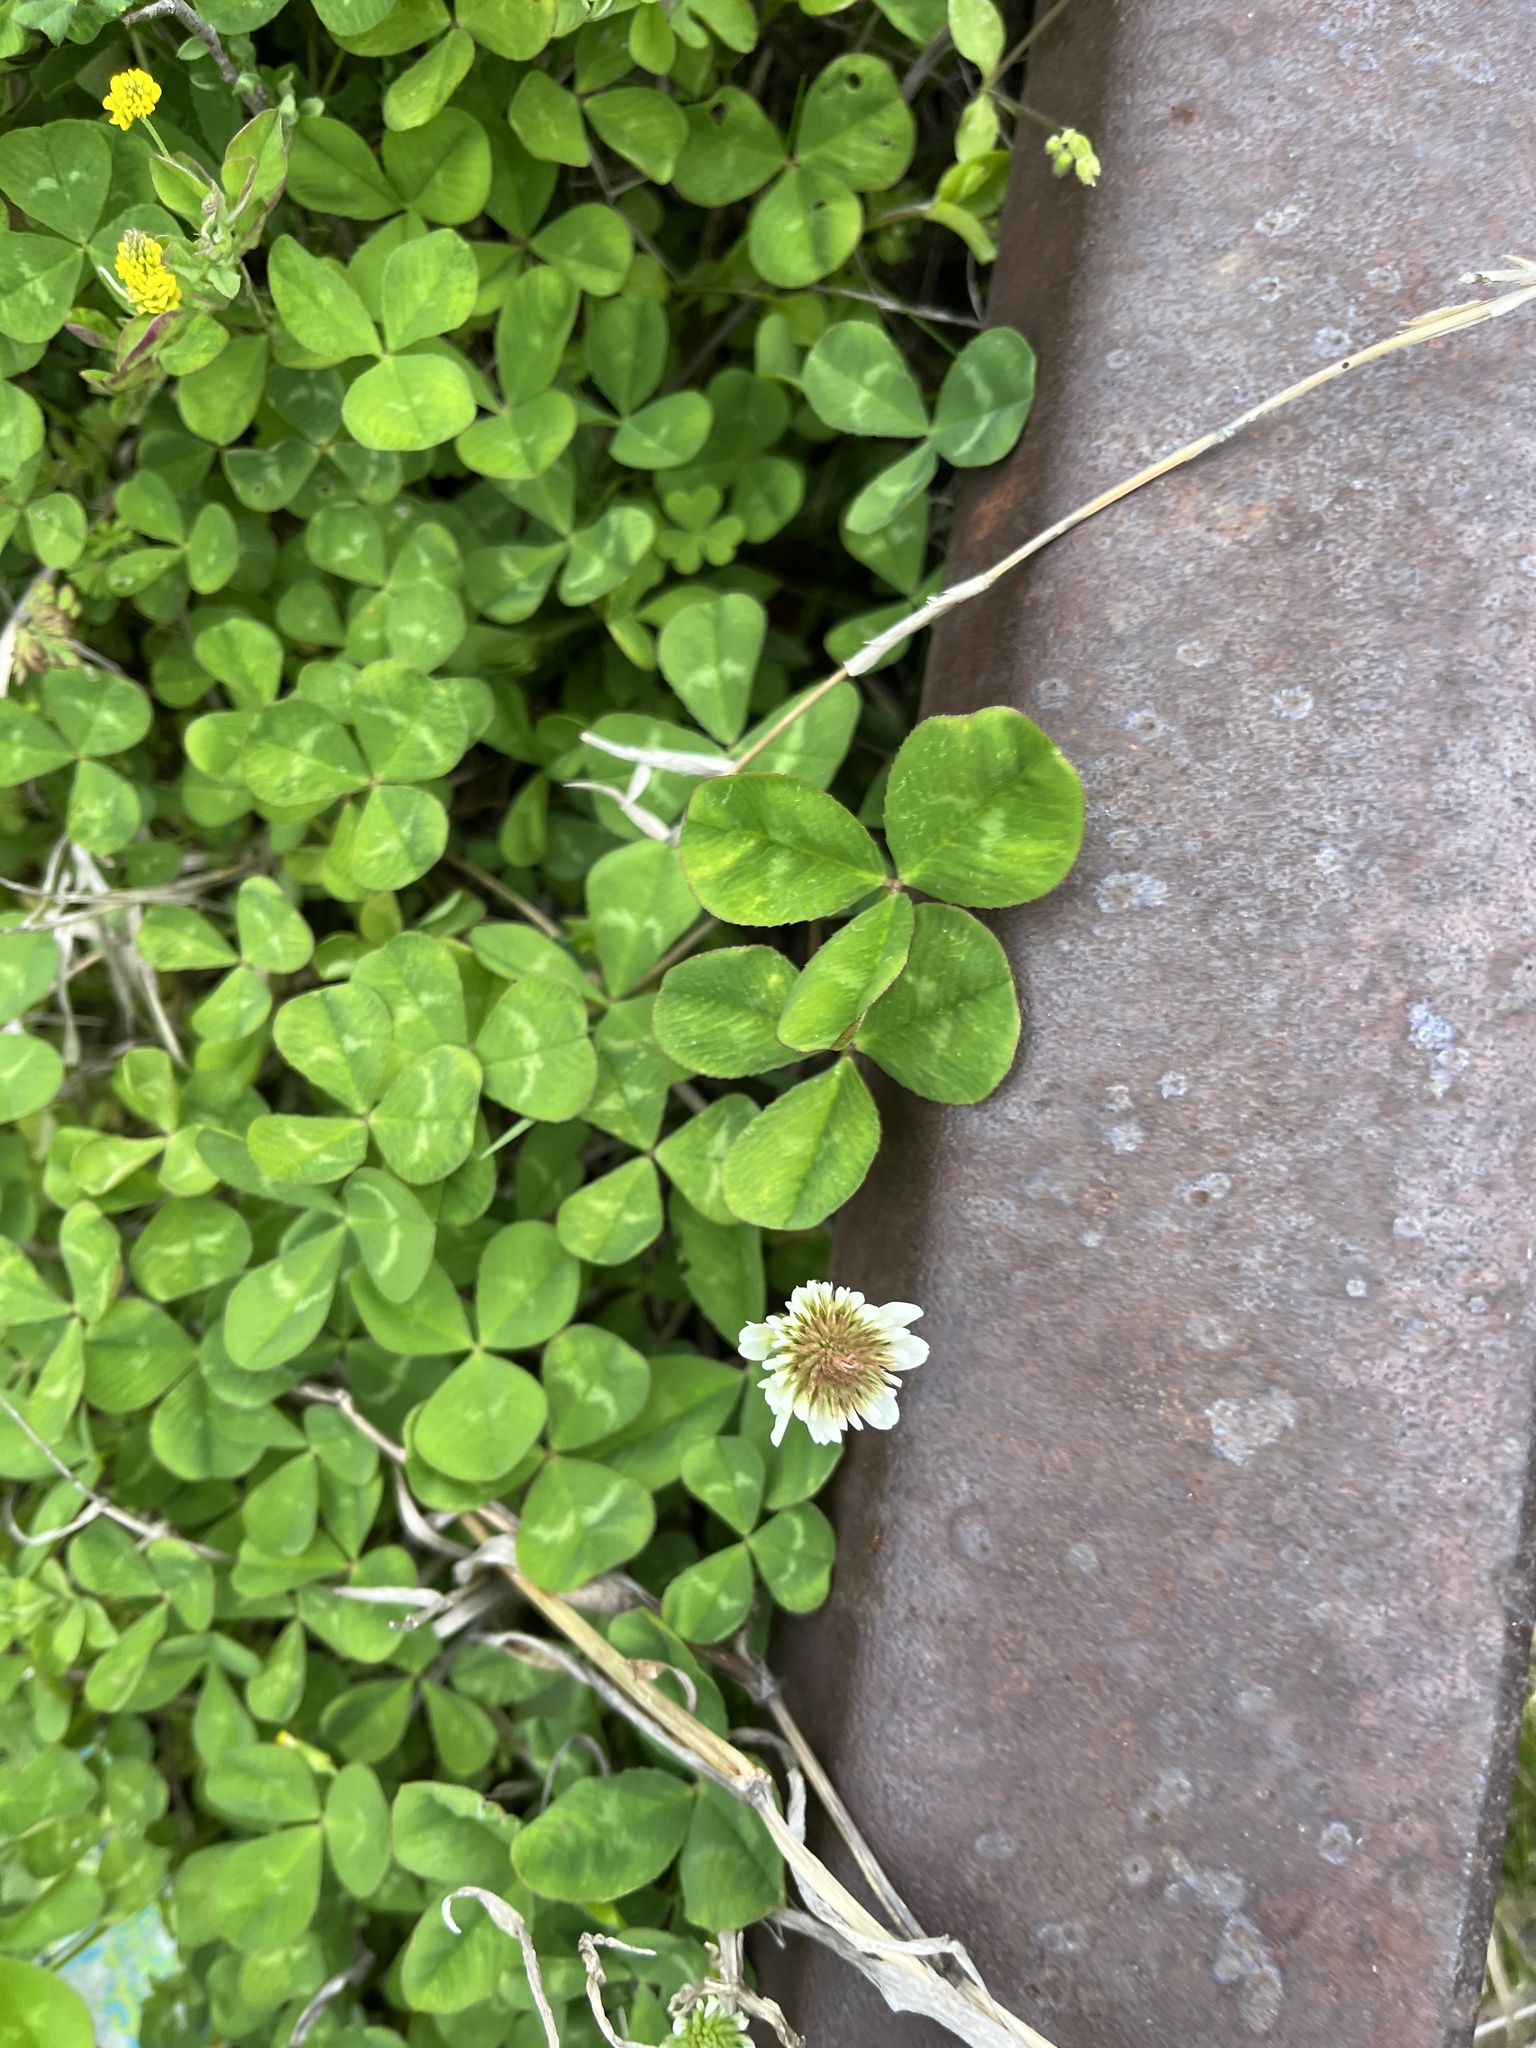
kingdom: Plantae
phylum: Tracheophyta
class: Magnoliopsida
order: Fabales
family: Fabaceae
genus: Trifolium
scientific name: Trifolium repens
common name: White clover
